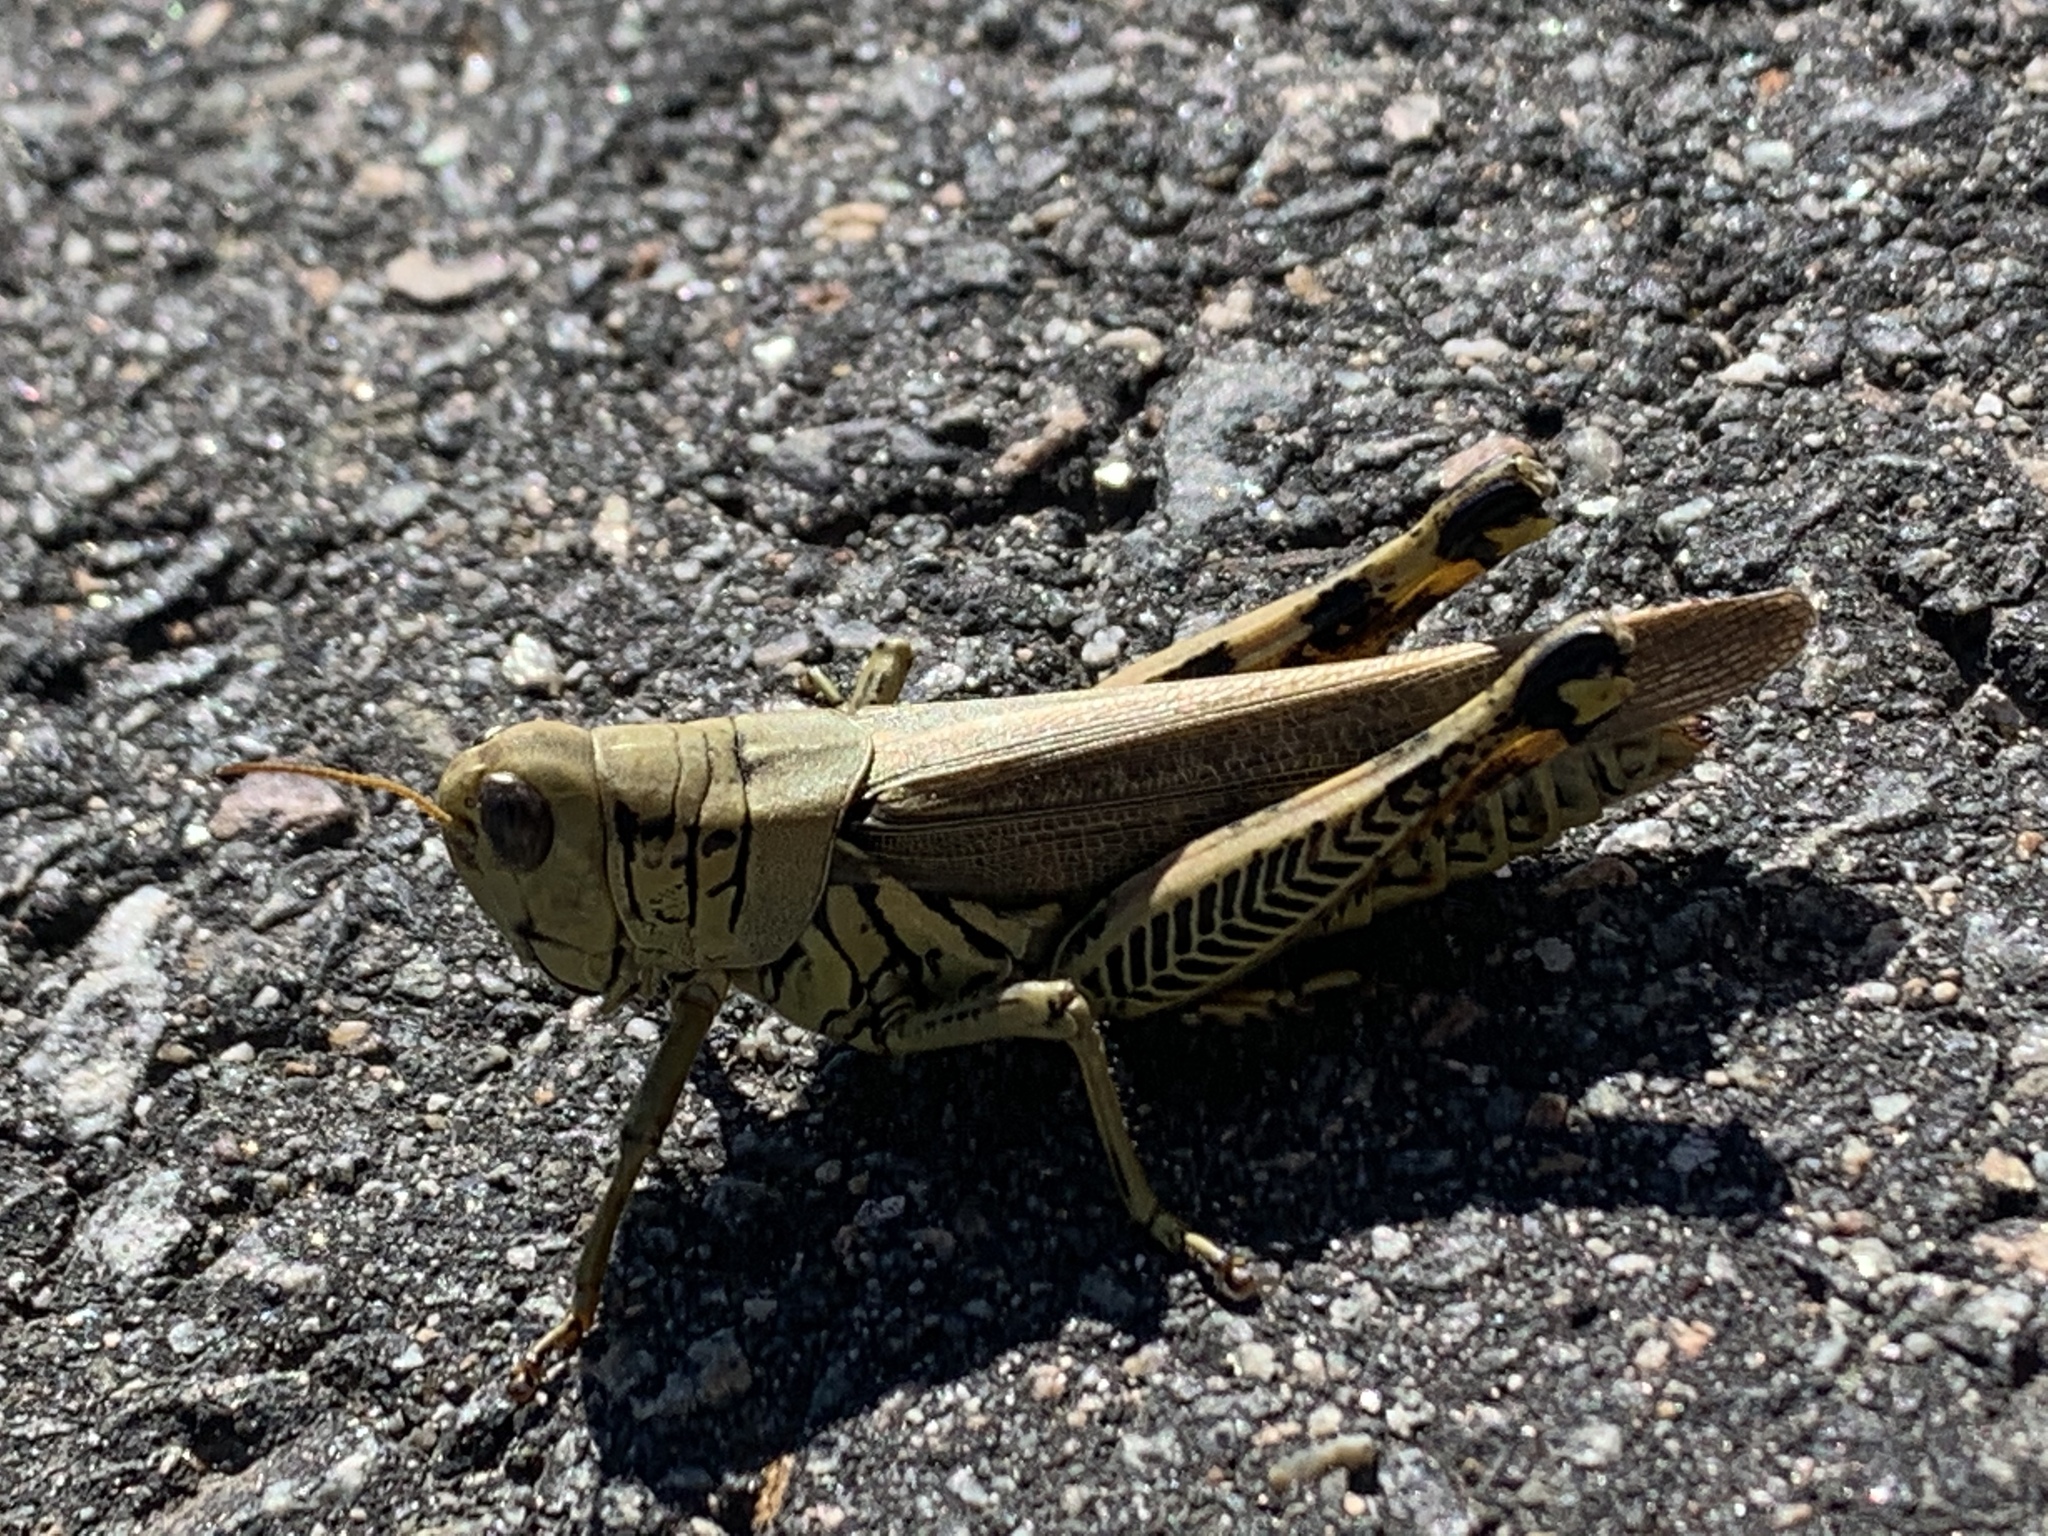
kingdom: Animalia
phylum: Arthropoda
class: Insecta
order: Orthoptera
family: Acrididae
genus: Melanoplus
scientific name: Melanoplus differentialis
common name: Differential grasshopper
